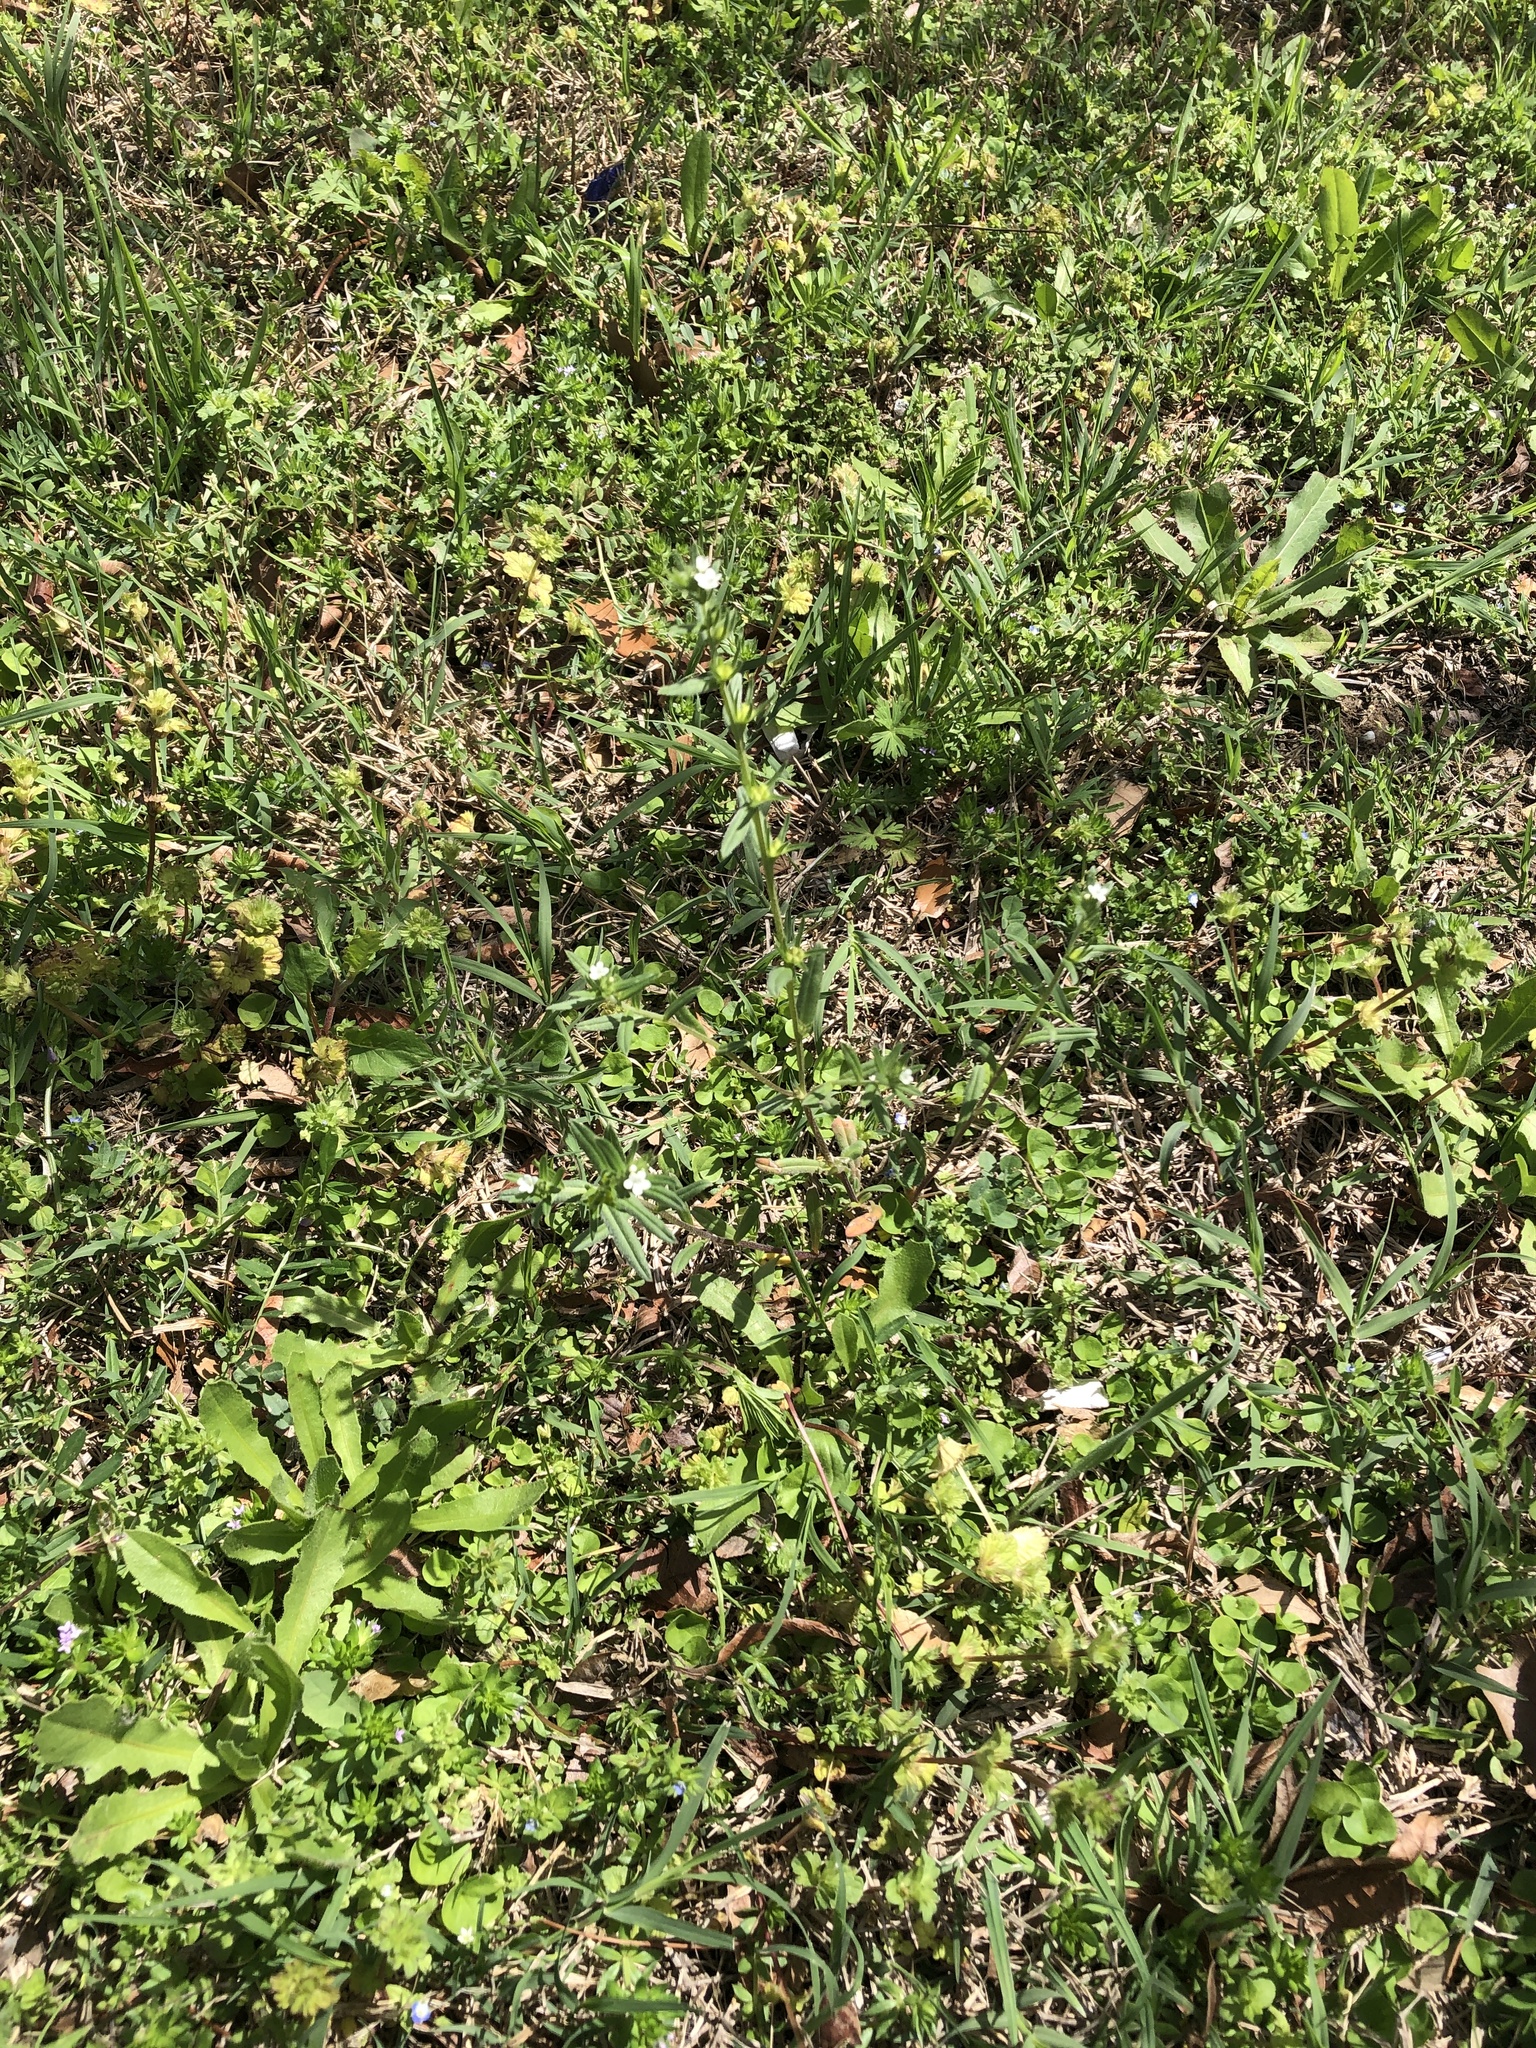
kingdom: Plantae
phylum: Tracheophyta
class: Magnoliopsida
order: Boraginales
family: Boraginaceae
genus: Buglossoides
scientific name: Buglossoides arvensis
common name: Corn gromwell
